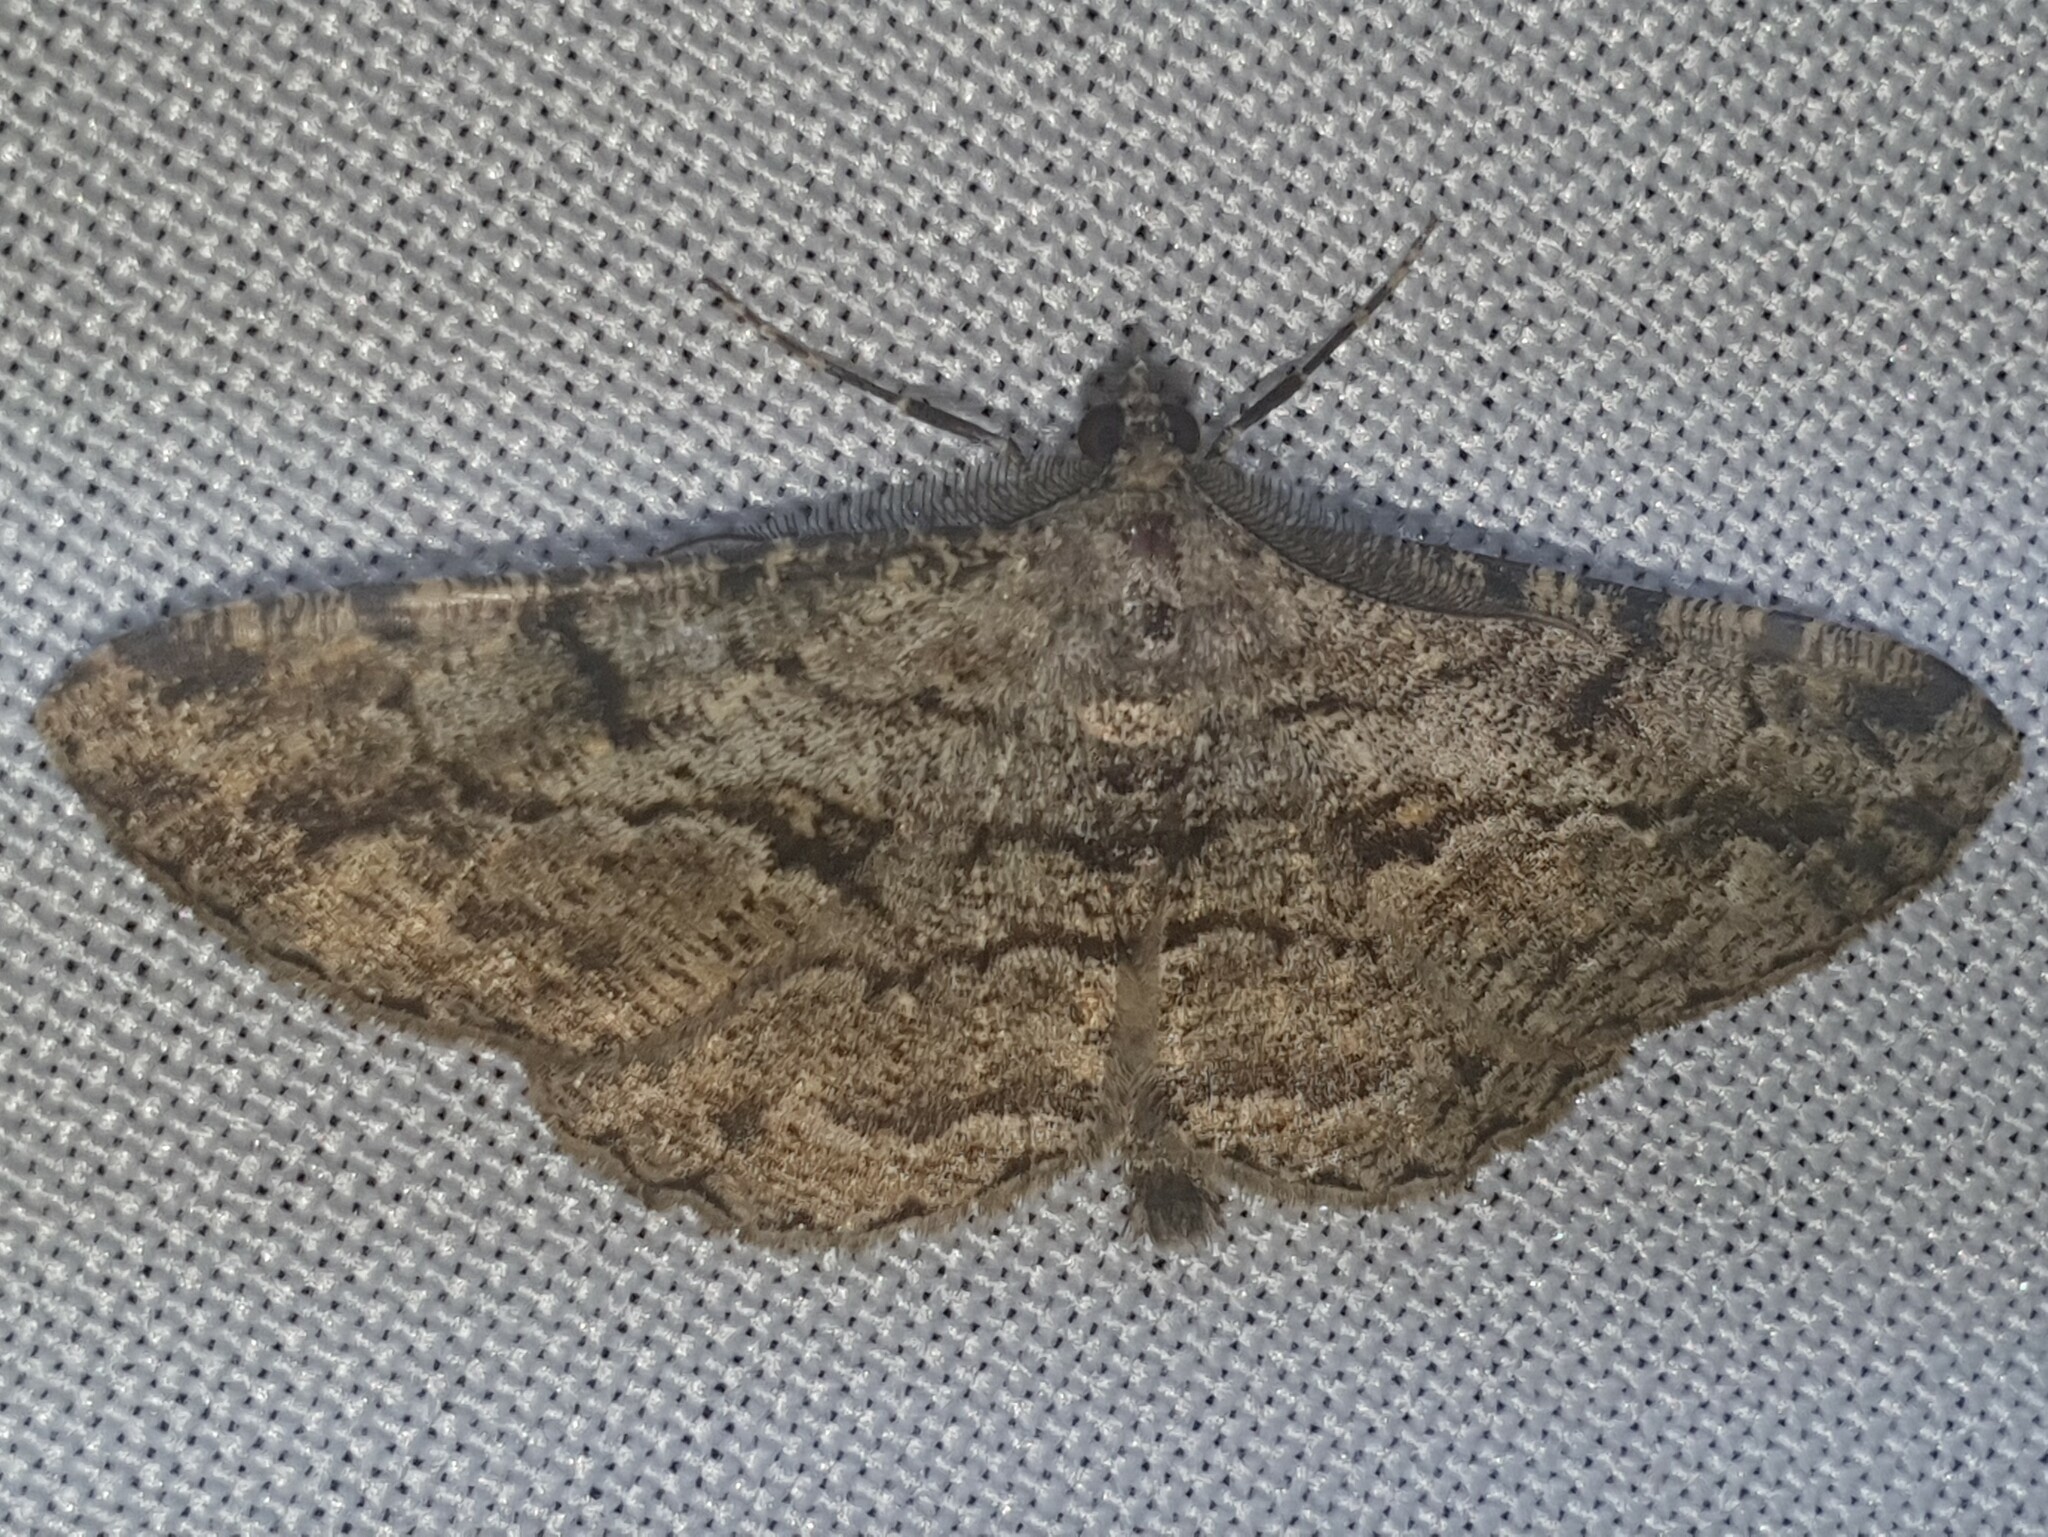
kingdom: Animalia
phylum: Arthropoda
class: Insecta
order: Lepidoptera
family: Geometridae
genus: Peribatodes
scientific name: Peribatodes rhomboidaria
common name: Willow beauty
